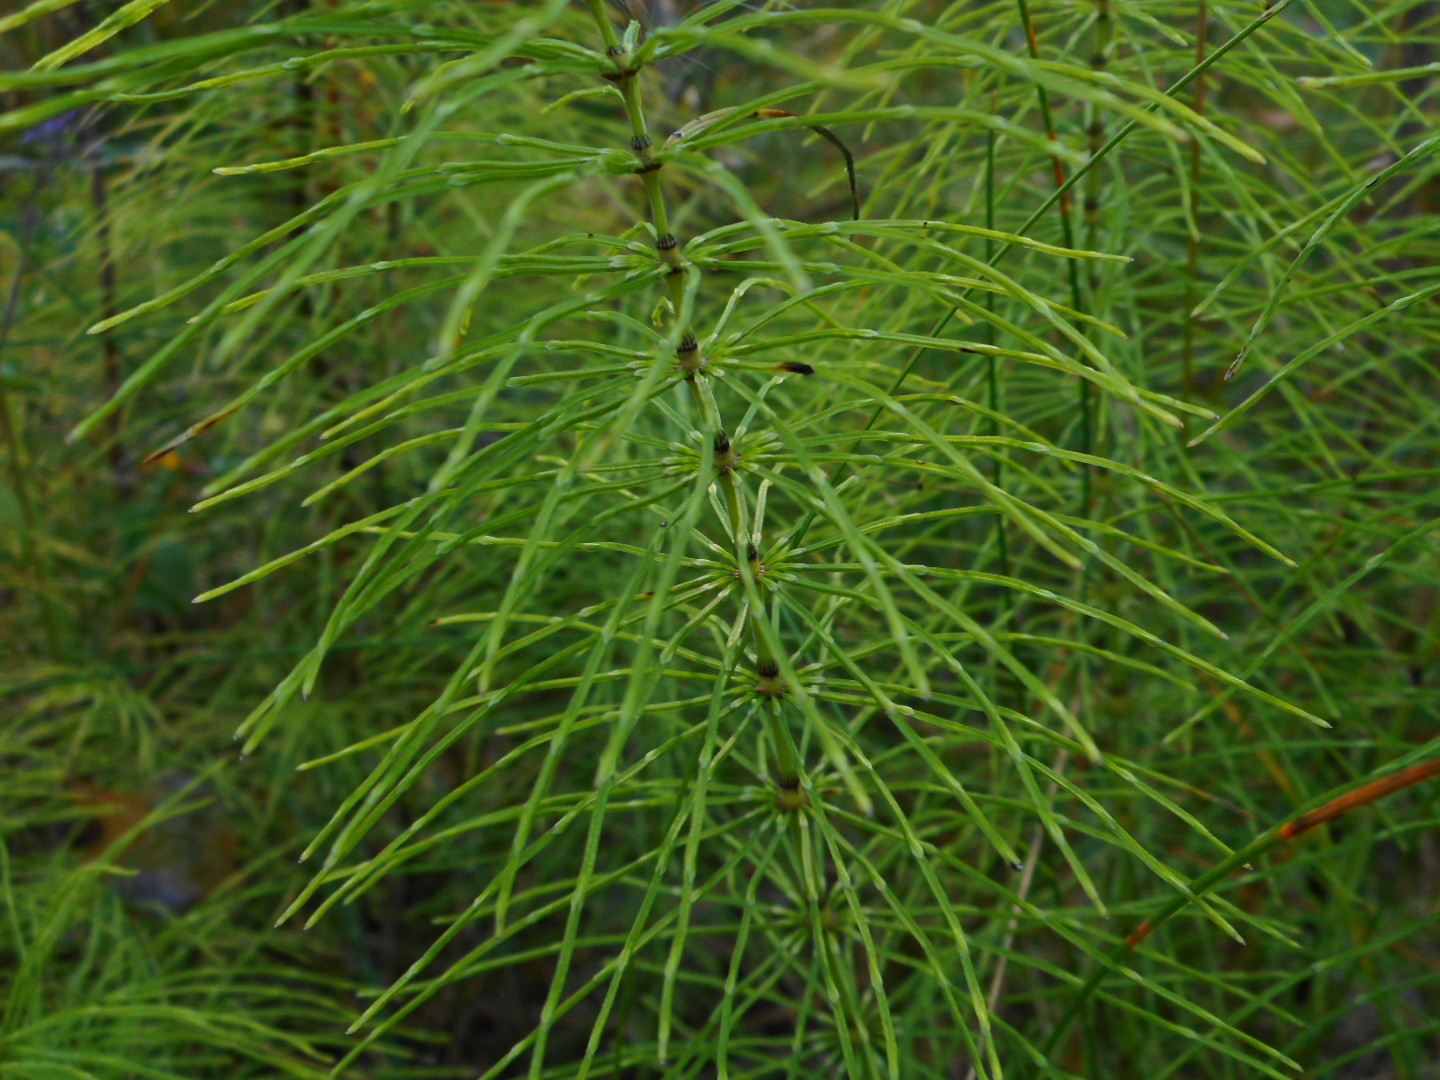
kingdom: Plantae
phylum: Tracheophyta
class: Polypodiopsida
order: Equisetales
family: Equisetaceae
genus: Equisetum
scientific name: Equisetum pratense
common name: Meadow horsetail
